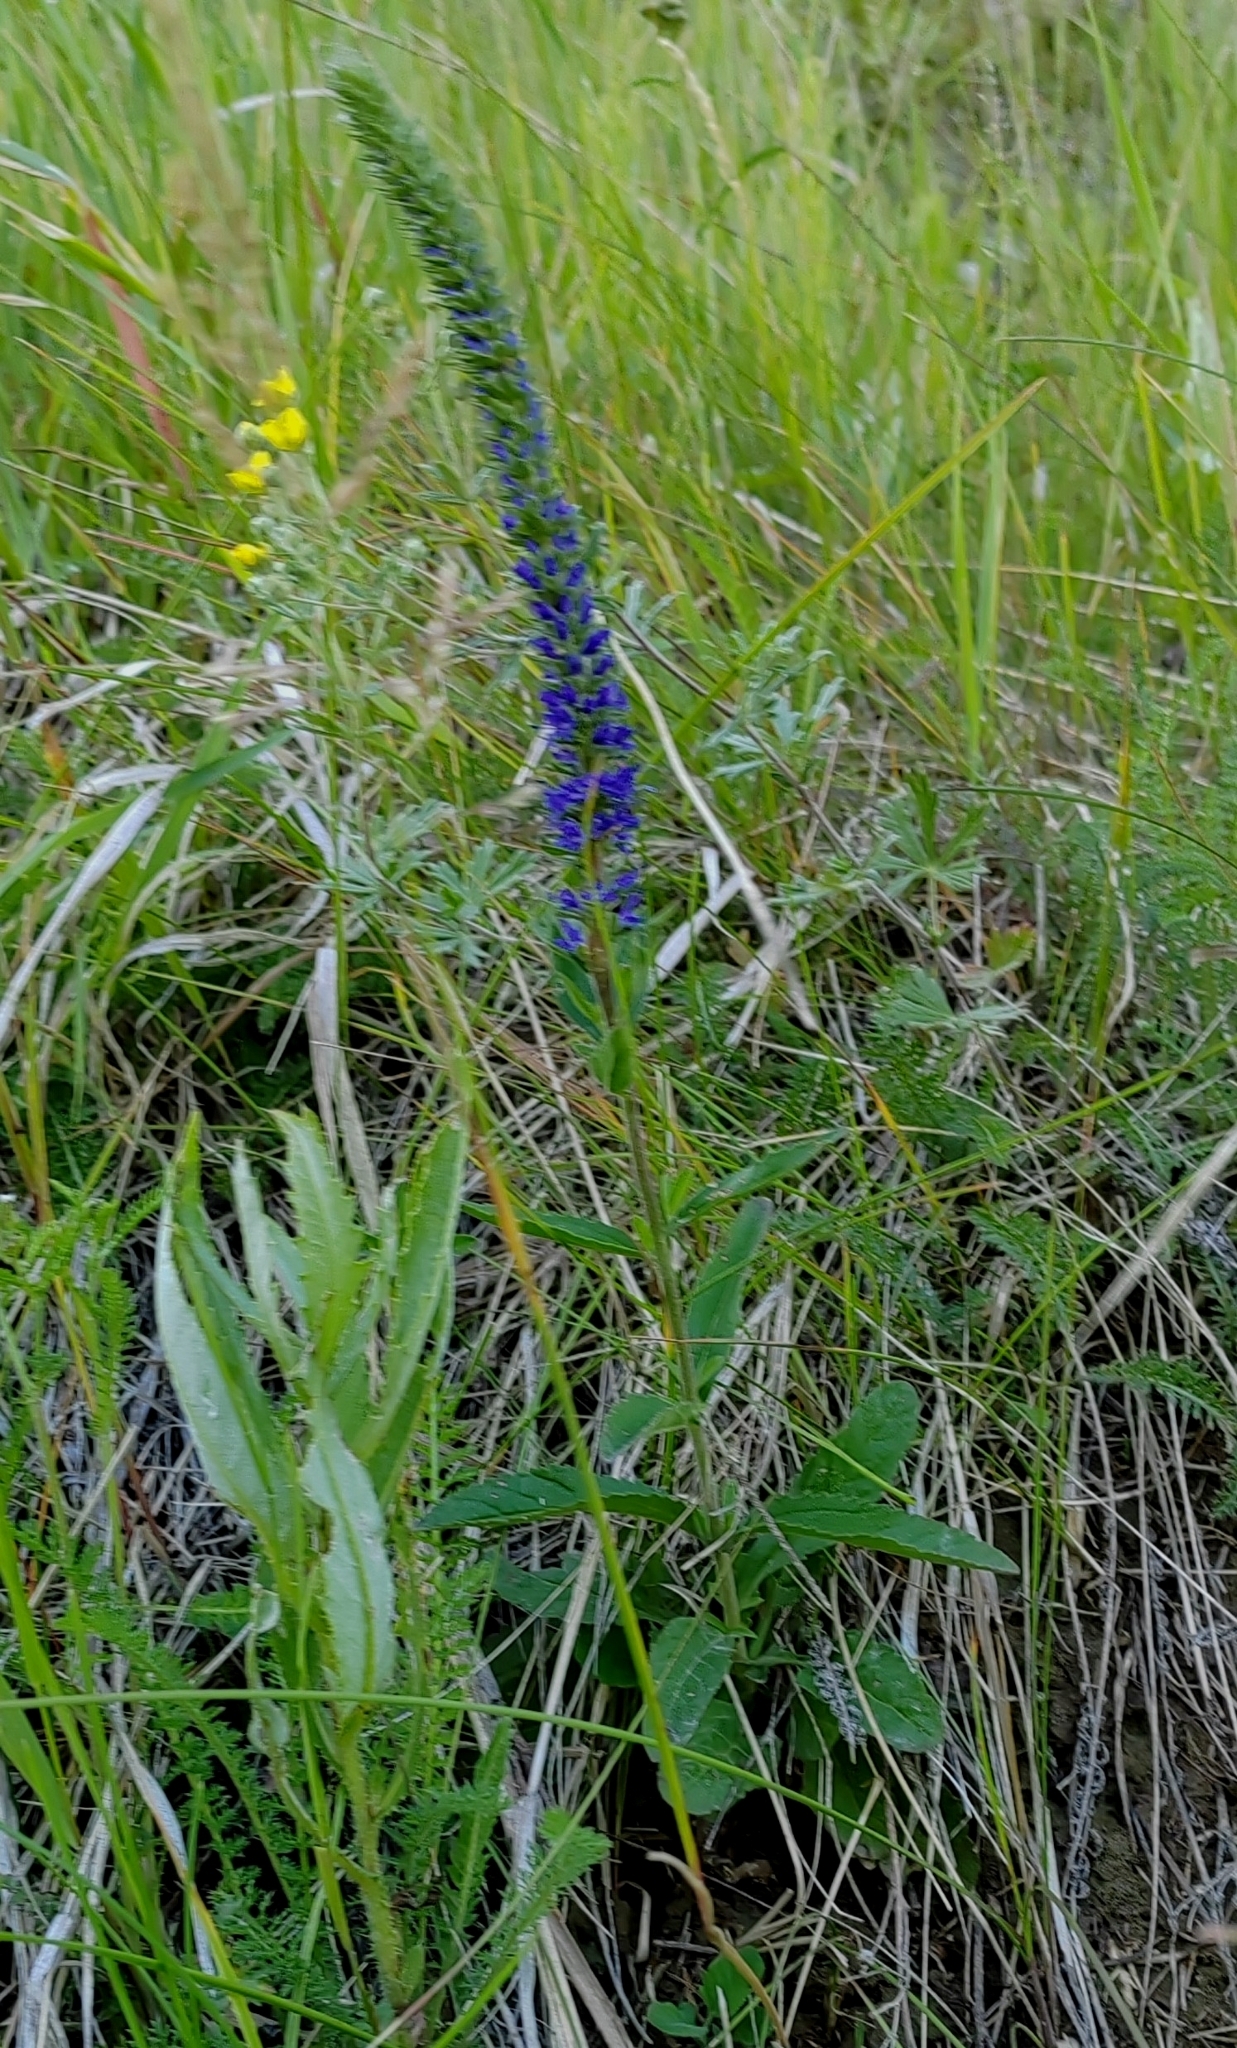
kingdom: Plantae
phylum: Tracheophyta
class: Magnoliopsida
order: Lamiales
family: Plantaginaceae
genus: Veronica
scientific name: Veronica spicata
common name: Spiked speedwell
